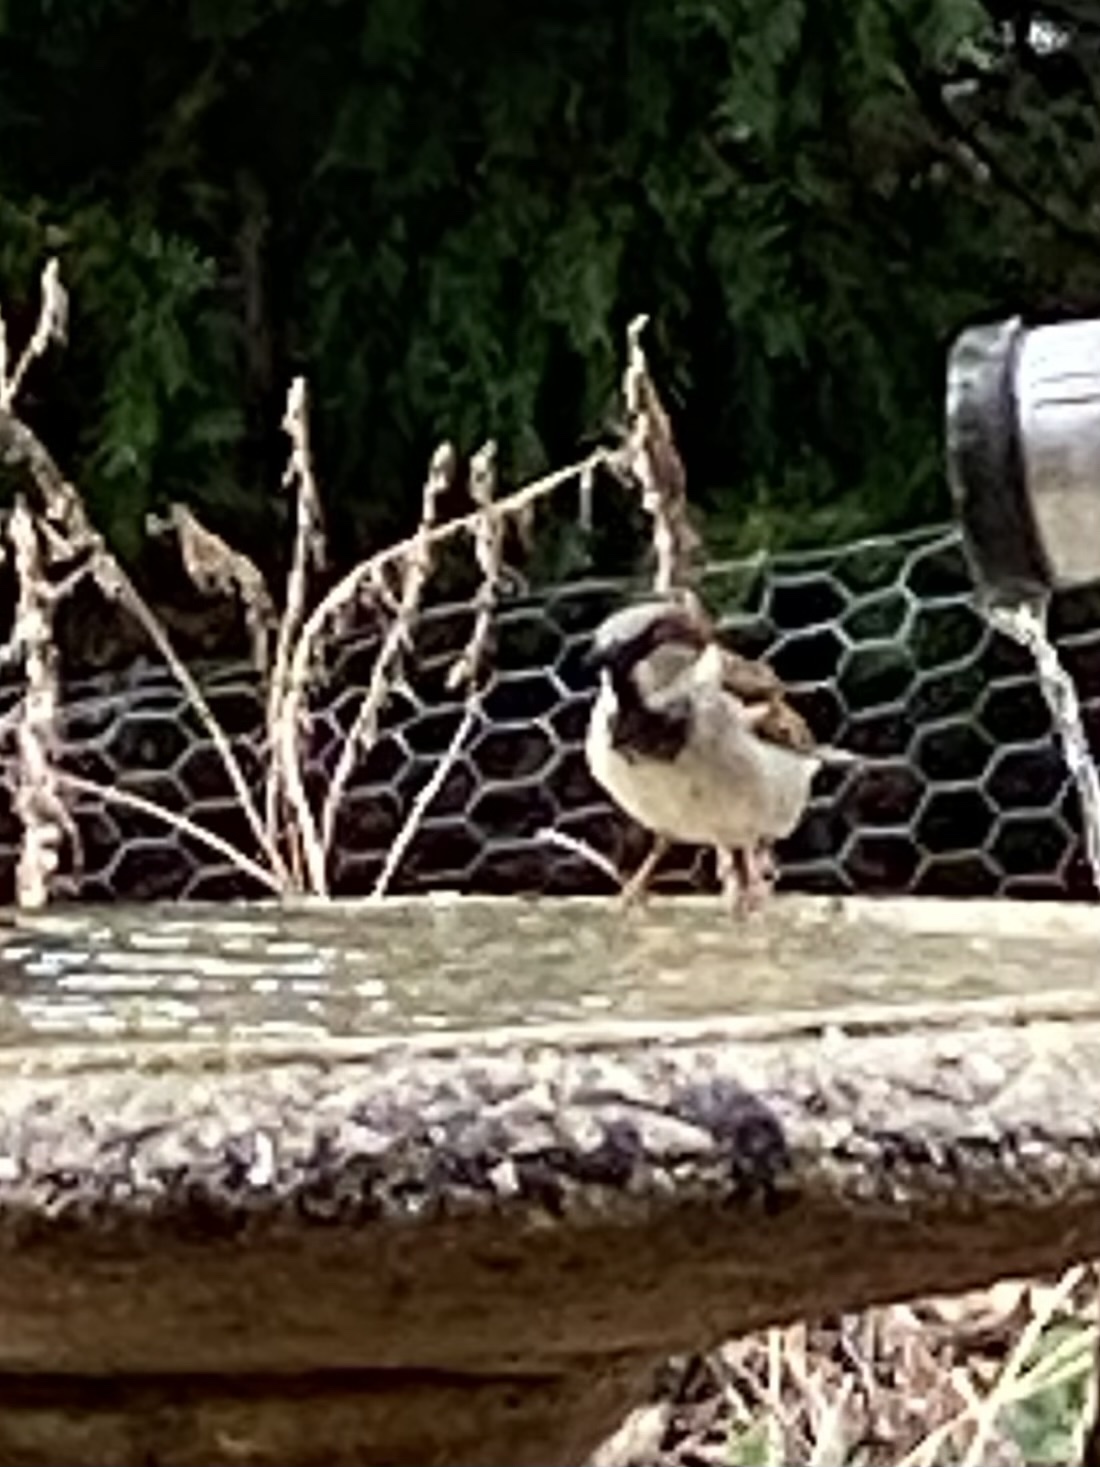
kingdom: Animalia
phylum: Chordata
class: Aves
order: Passeriformes
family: Passeridae
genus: Passer
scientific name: Passer domesticus
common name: House sparrow
